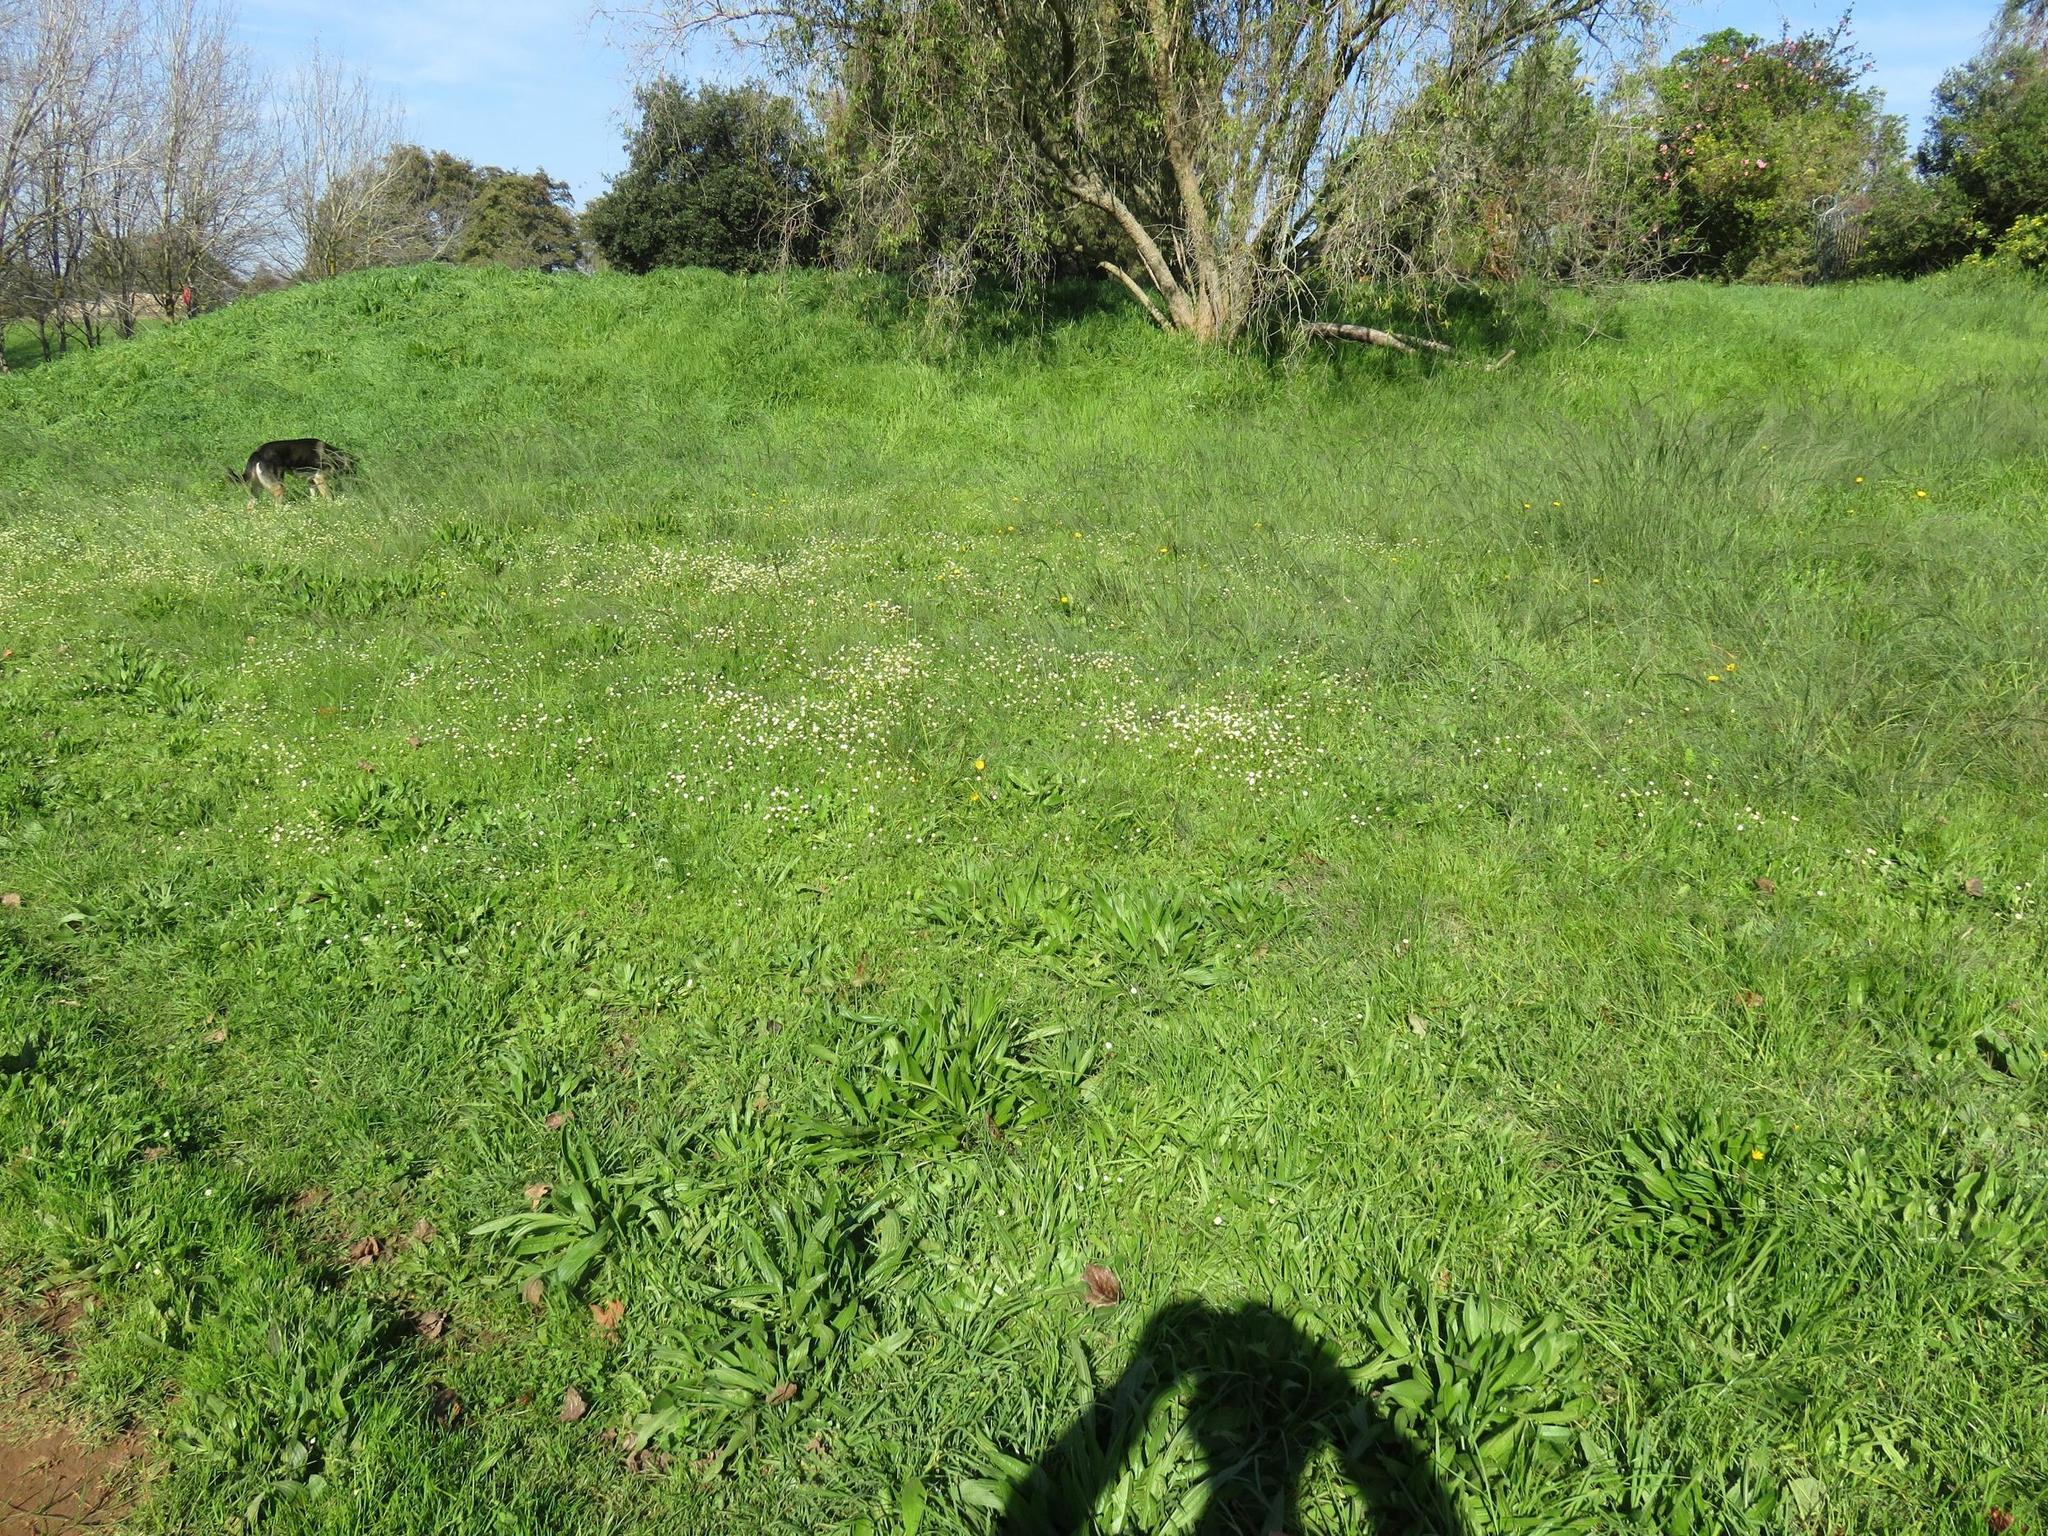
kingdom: Plantae
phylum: Tracheophyta
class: Magnoliopsida
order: Asterales
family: Asteraceae
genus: Cotula
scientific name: Cotula turbinata
